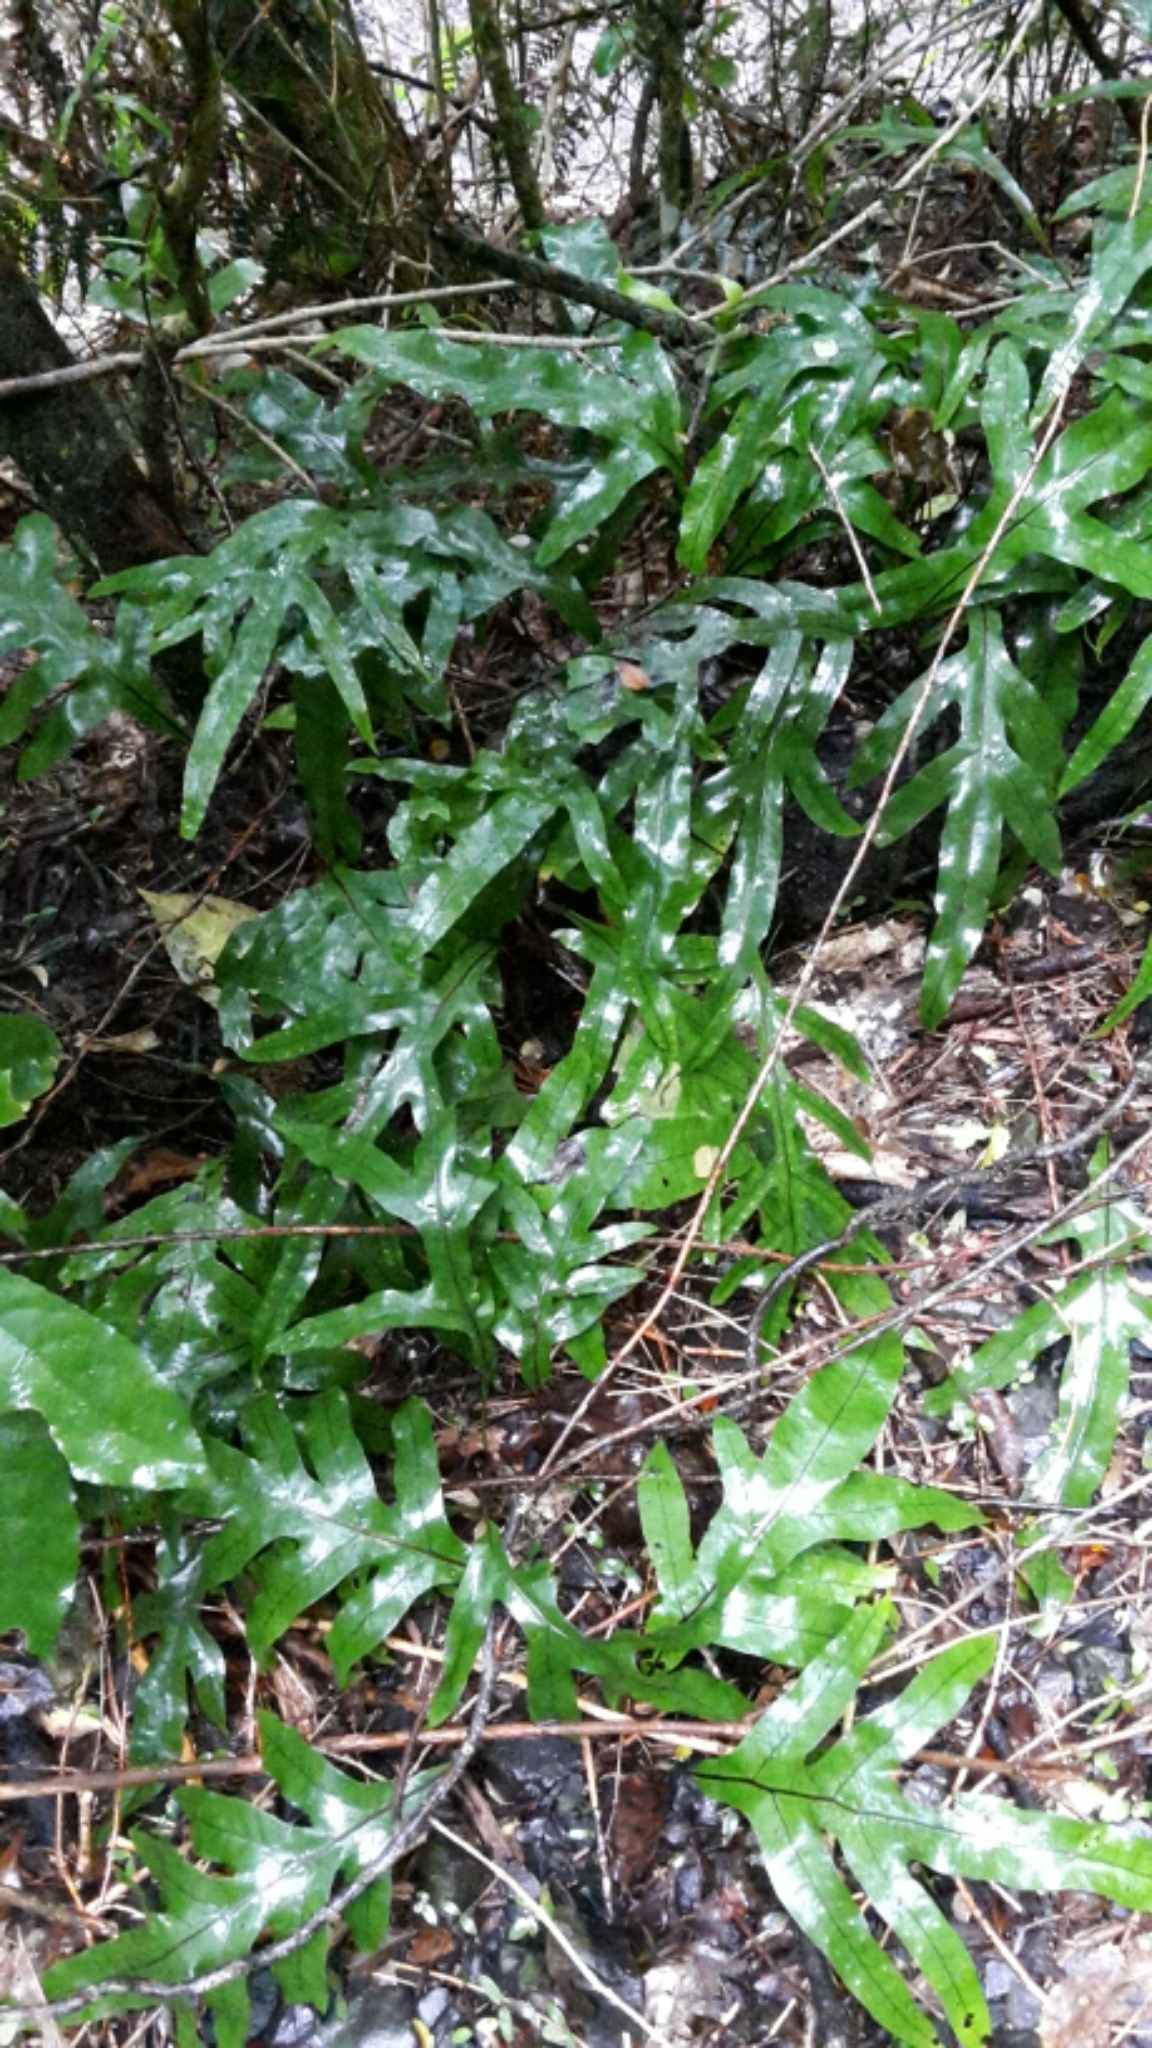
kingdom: Plantae
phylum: Tracheophyta
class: Polypodiopsida
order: Polypodiales
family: Polypodiaceae
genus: Lecanopteris
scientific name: Lecanopteris pustulata
